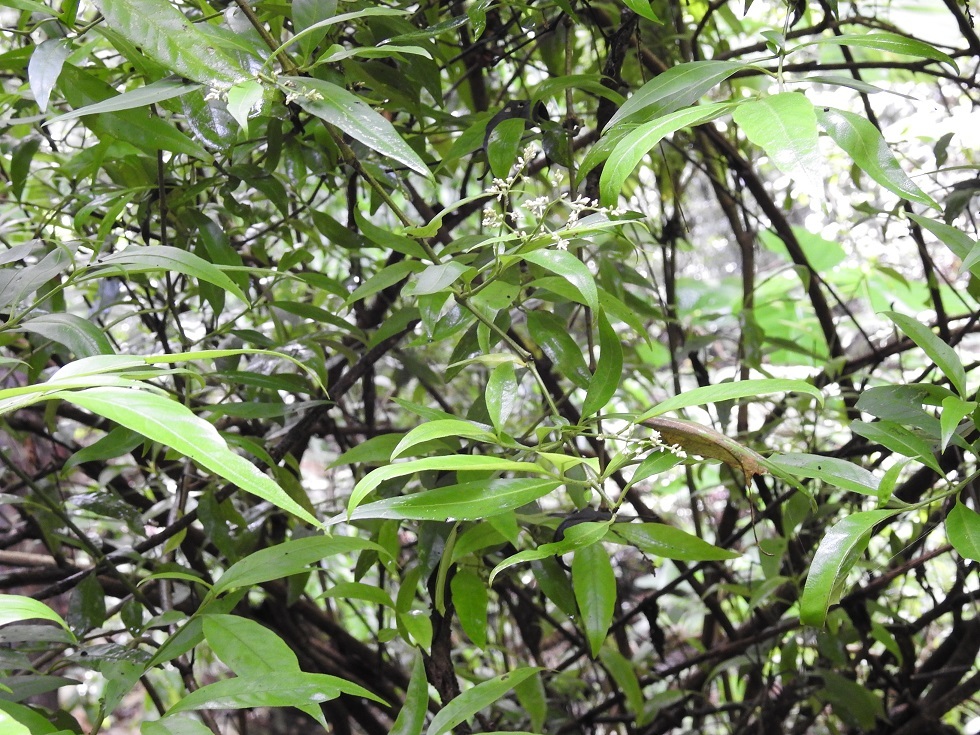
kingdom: Plantae
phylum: Tracheophyta
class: Magnoliopsida
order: Caryophyllales
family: Amaranthaceae
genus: Iresine
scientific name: Iresine arbuscula
